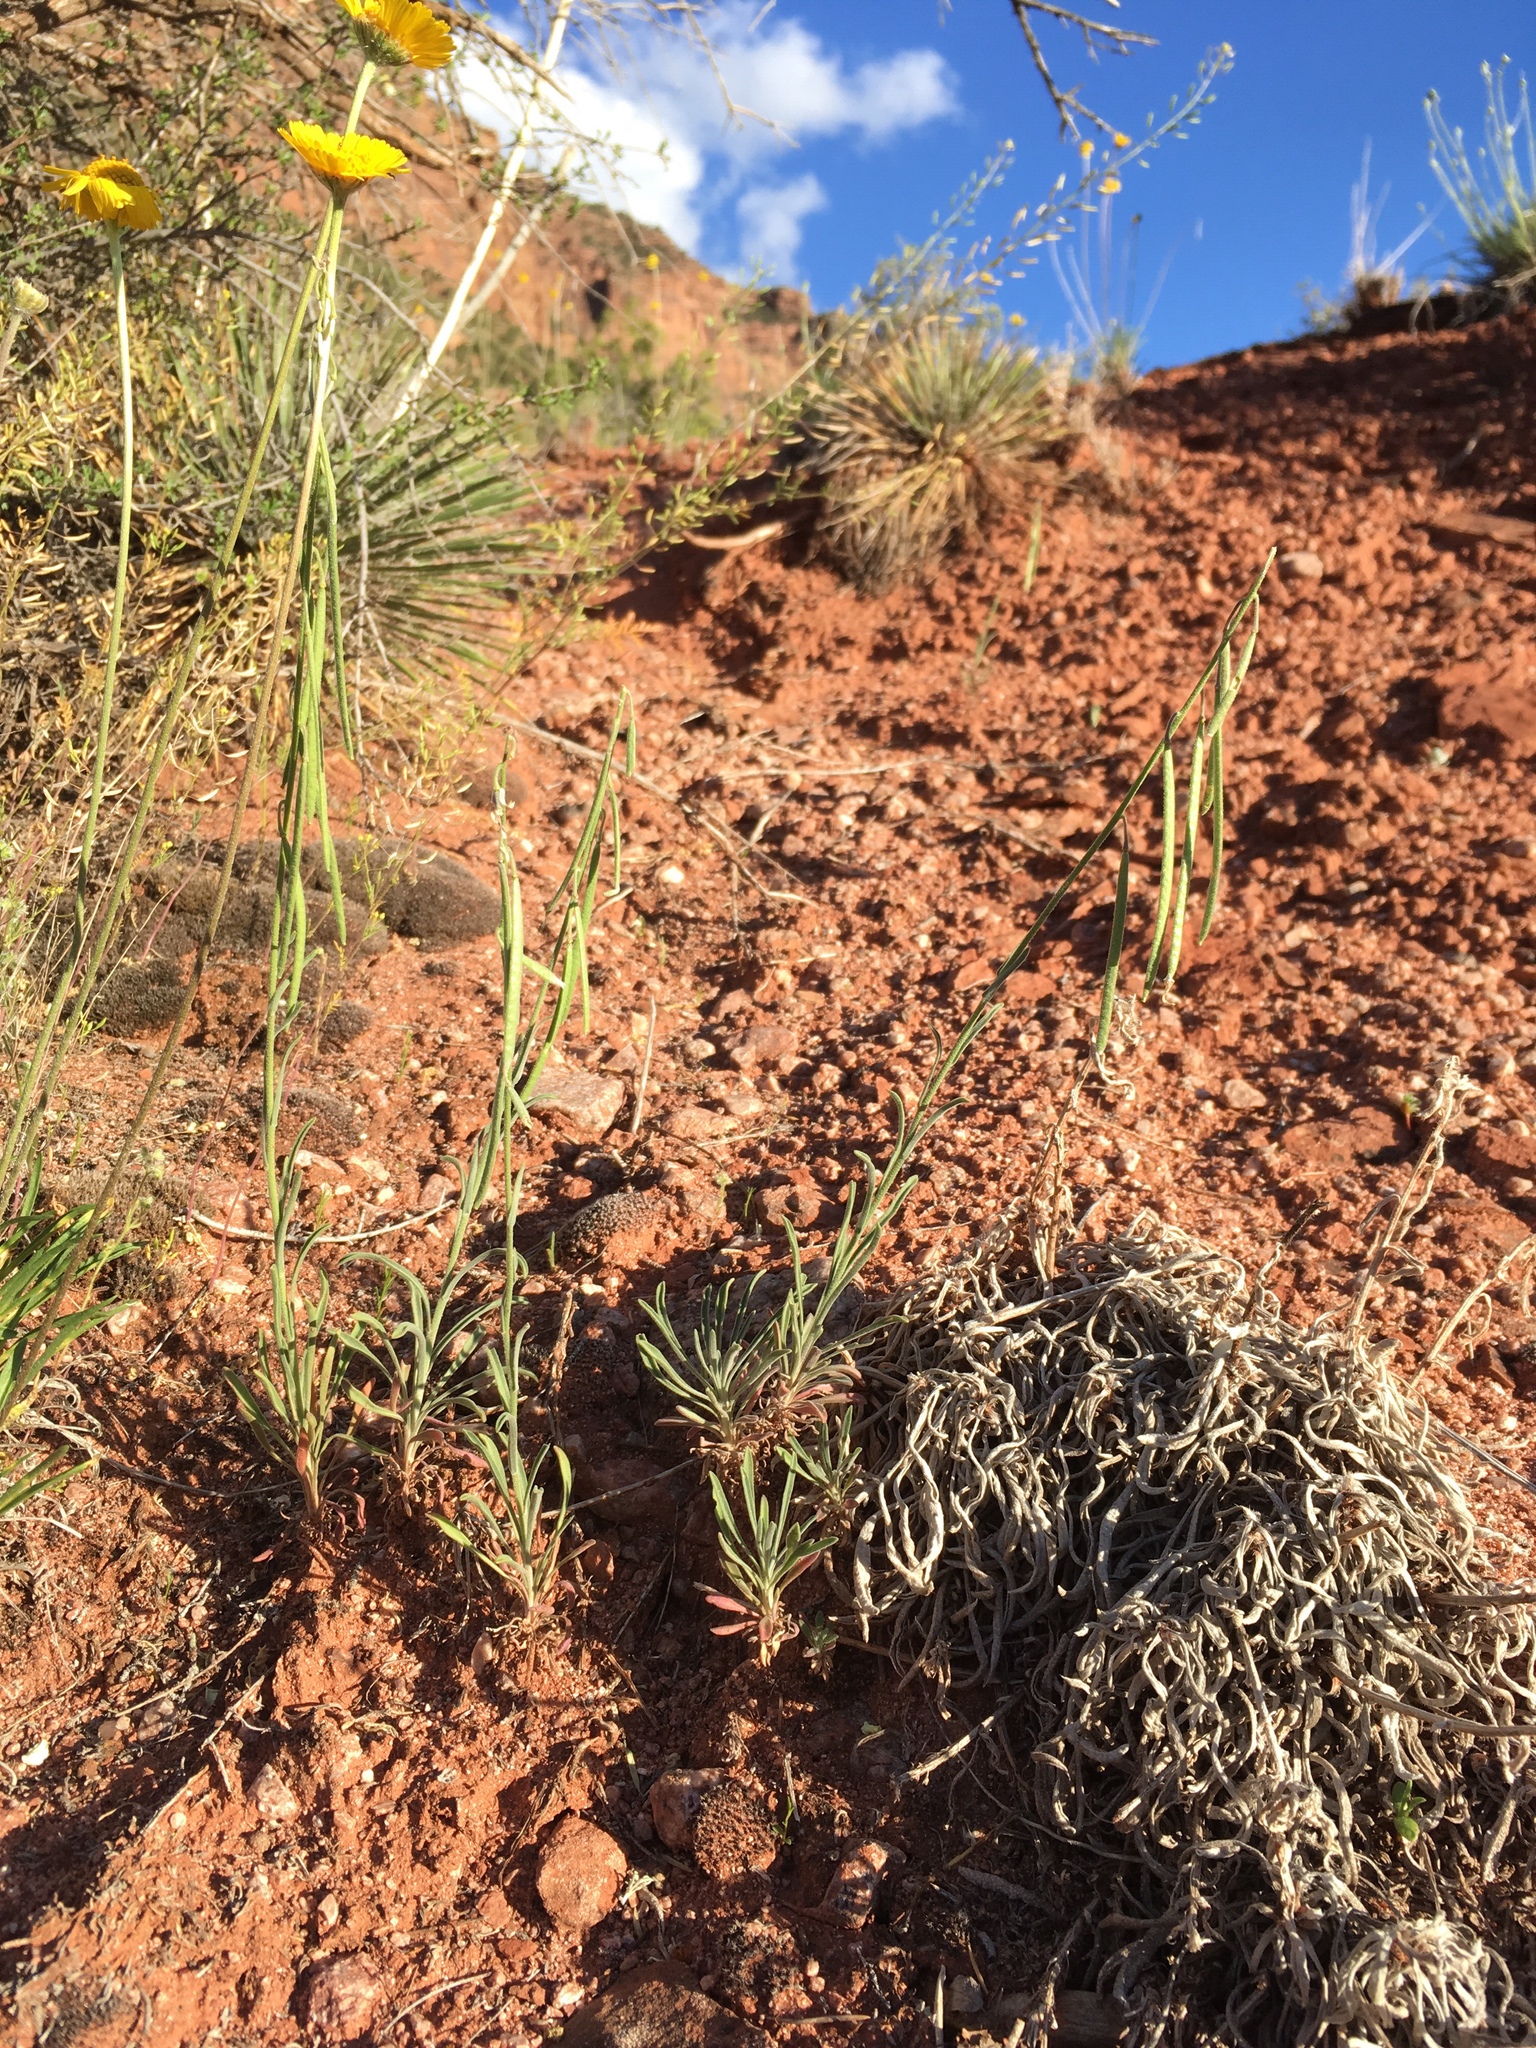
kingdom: Plantae
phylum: Tracheophyta
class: Magnoliopsida
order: Brassicales
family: Brassicaceae
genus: Boechera
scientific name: Boechera formosa
